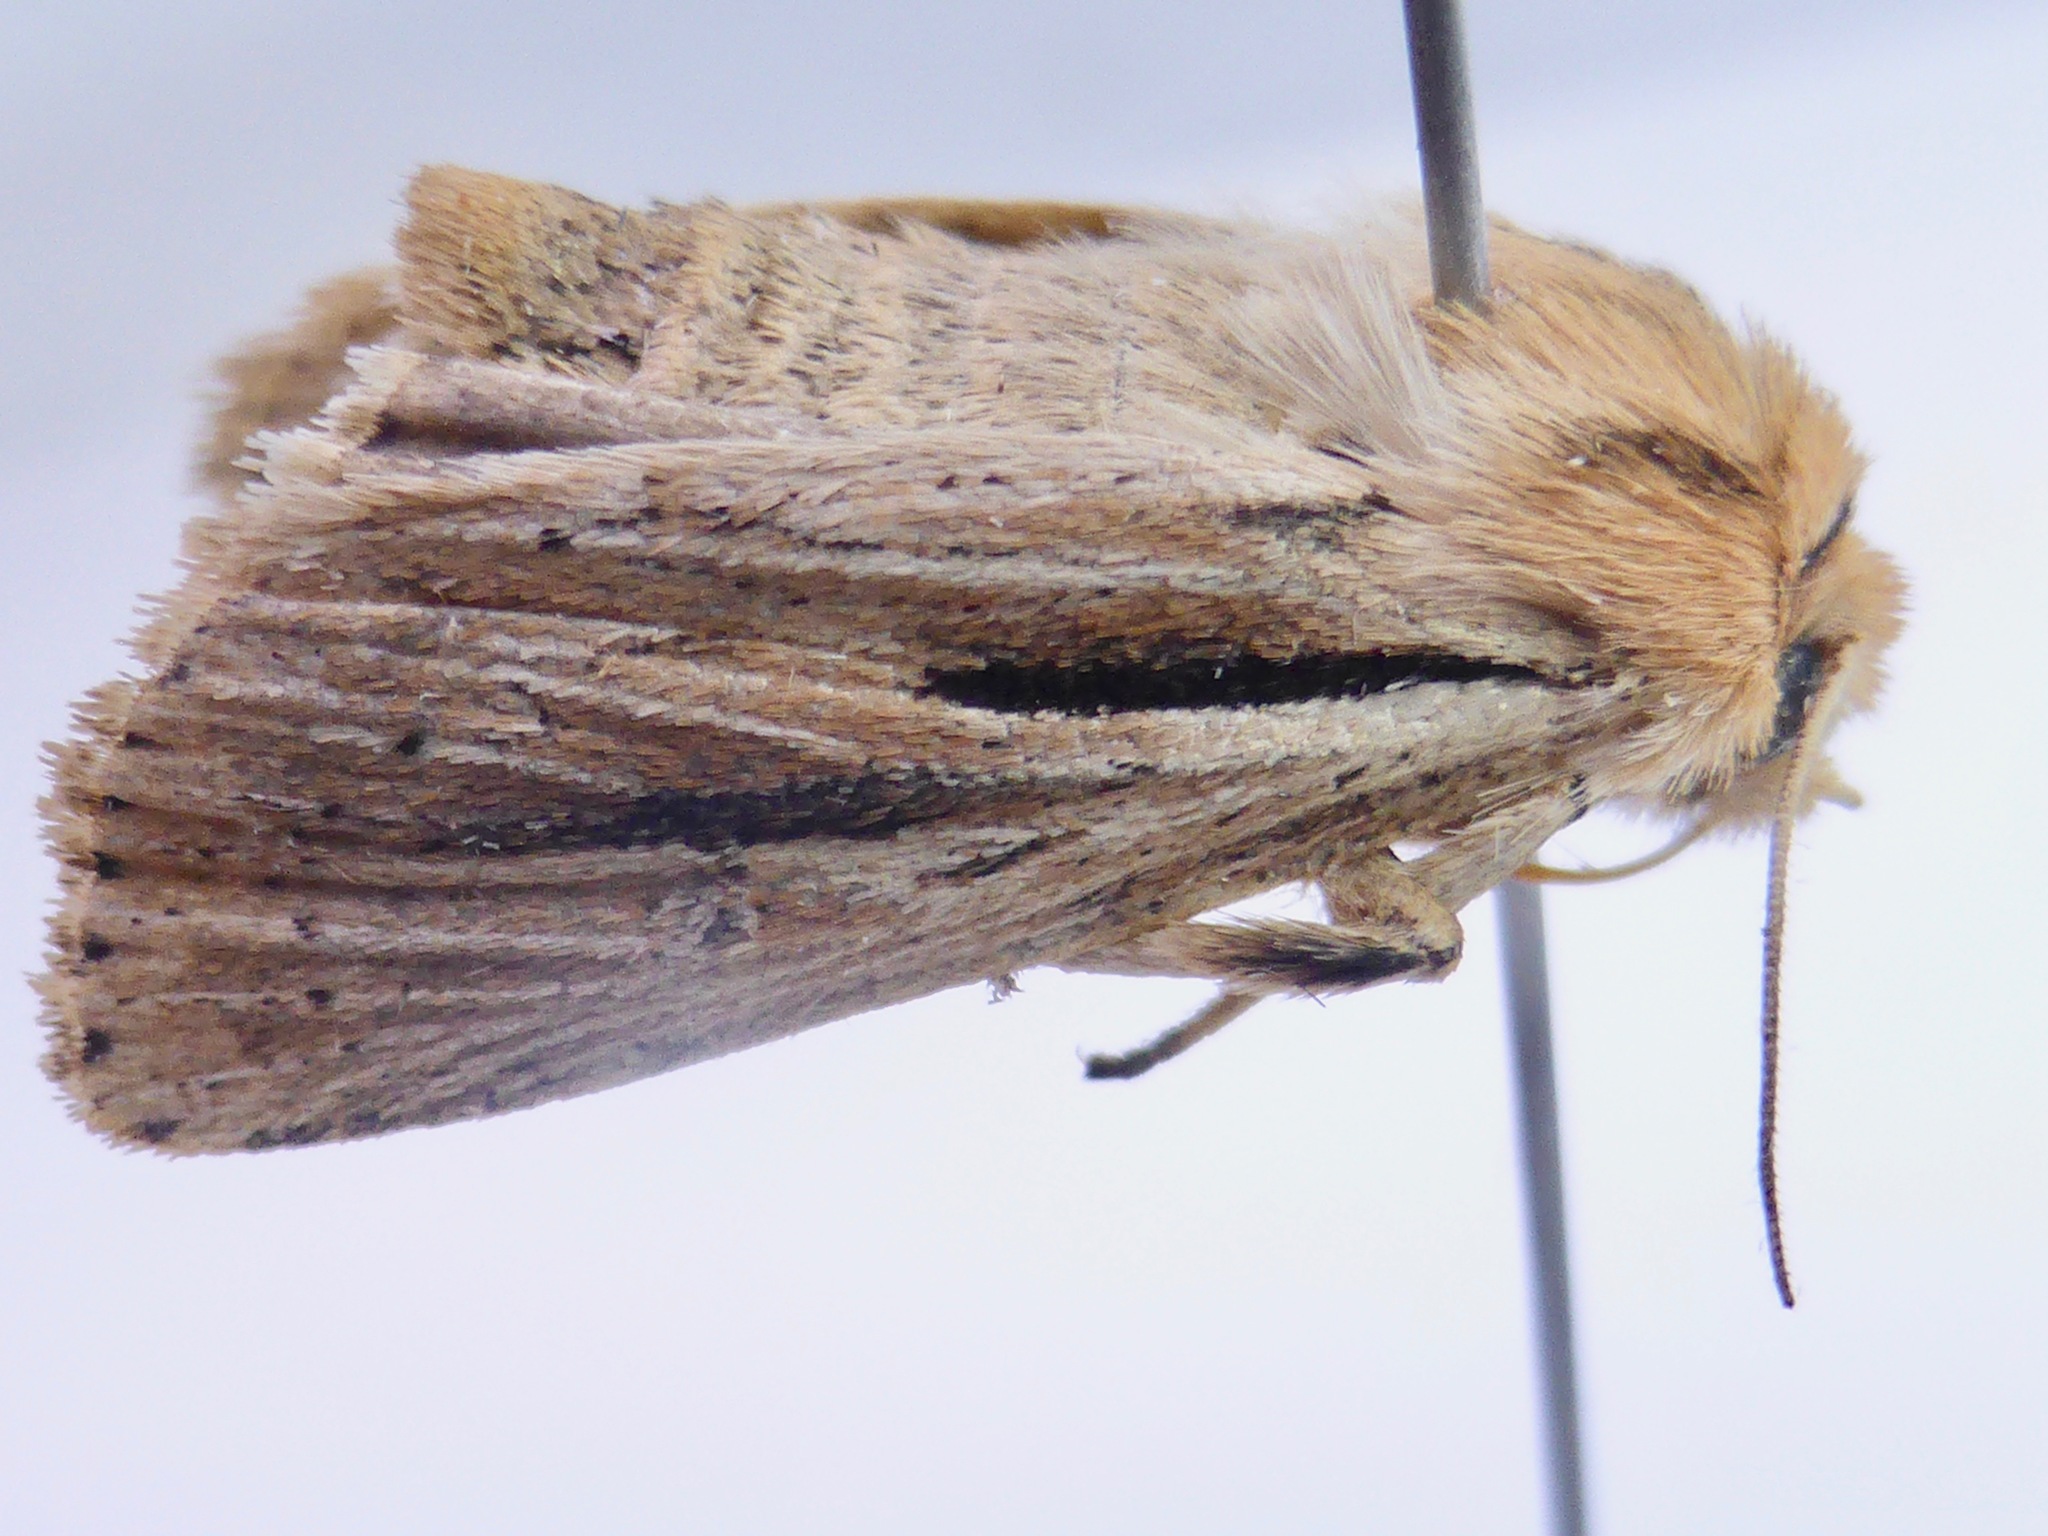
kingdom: Animalia
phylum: Arthropoda
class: Insecta
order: Lepidoptera
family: Noctuidae
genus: Ichneutica
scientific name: Ichneutica propria
